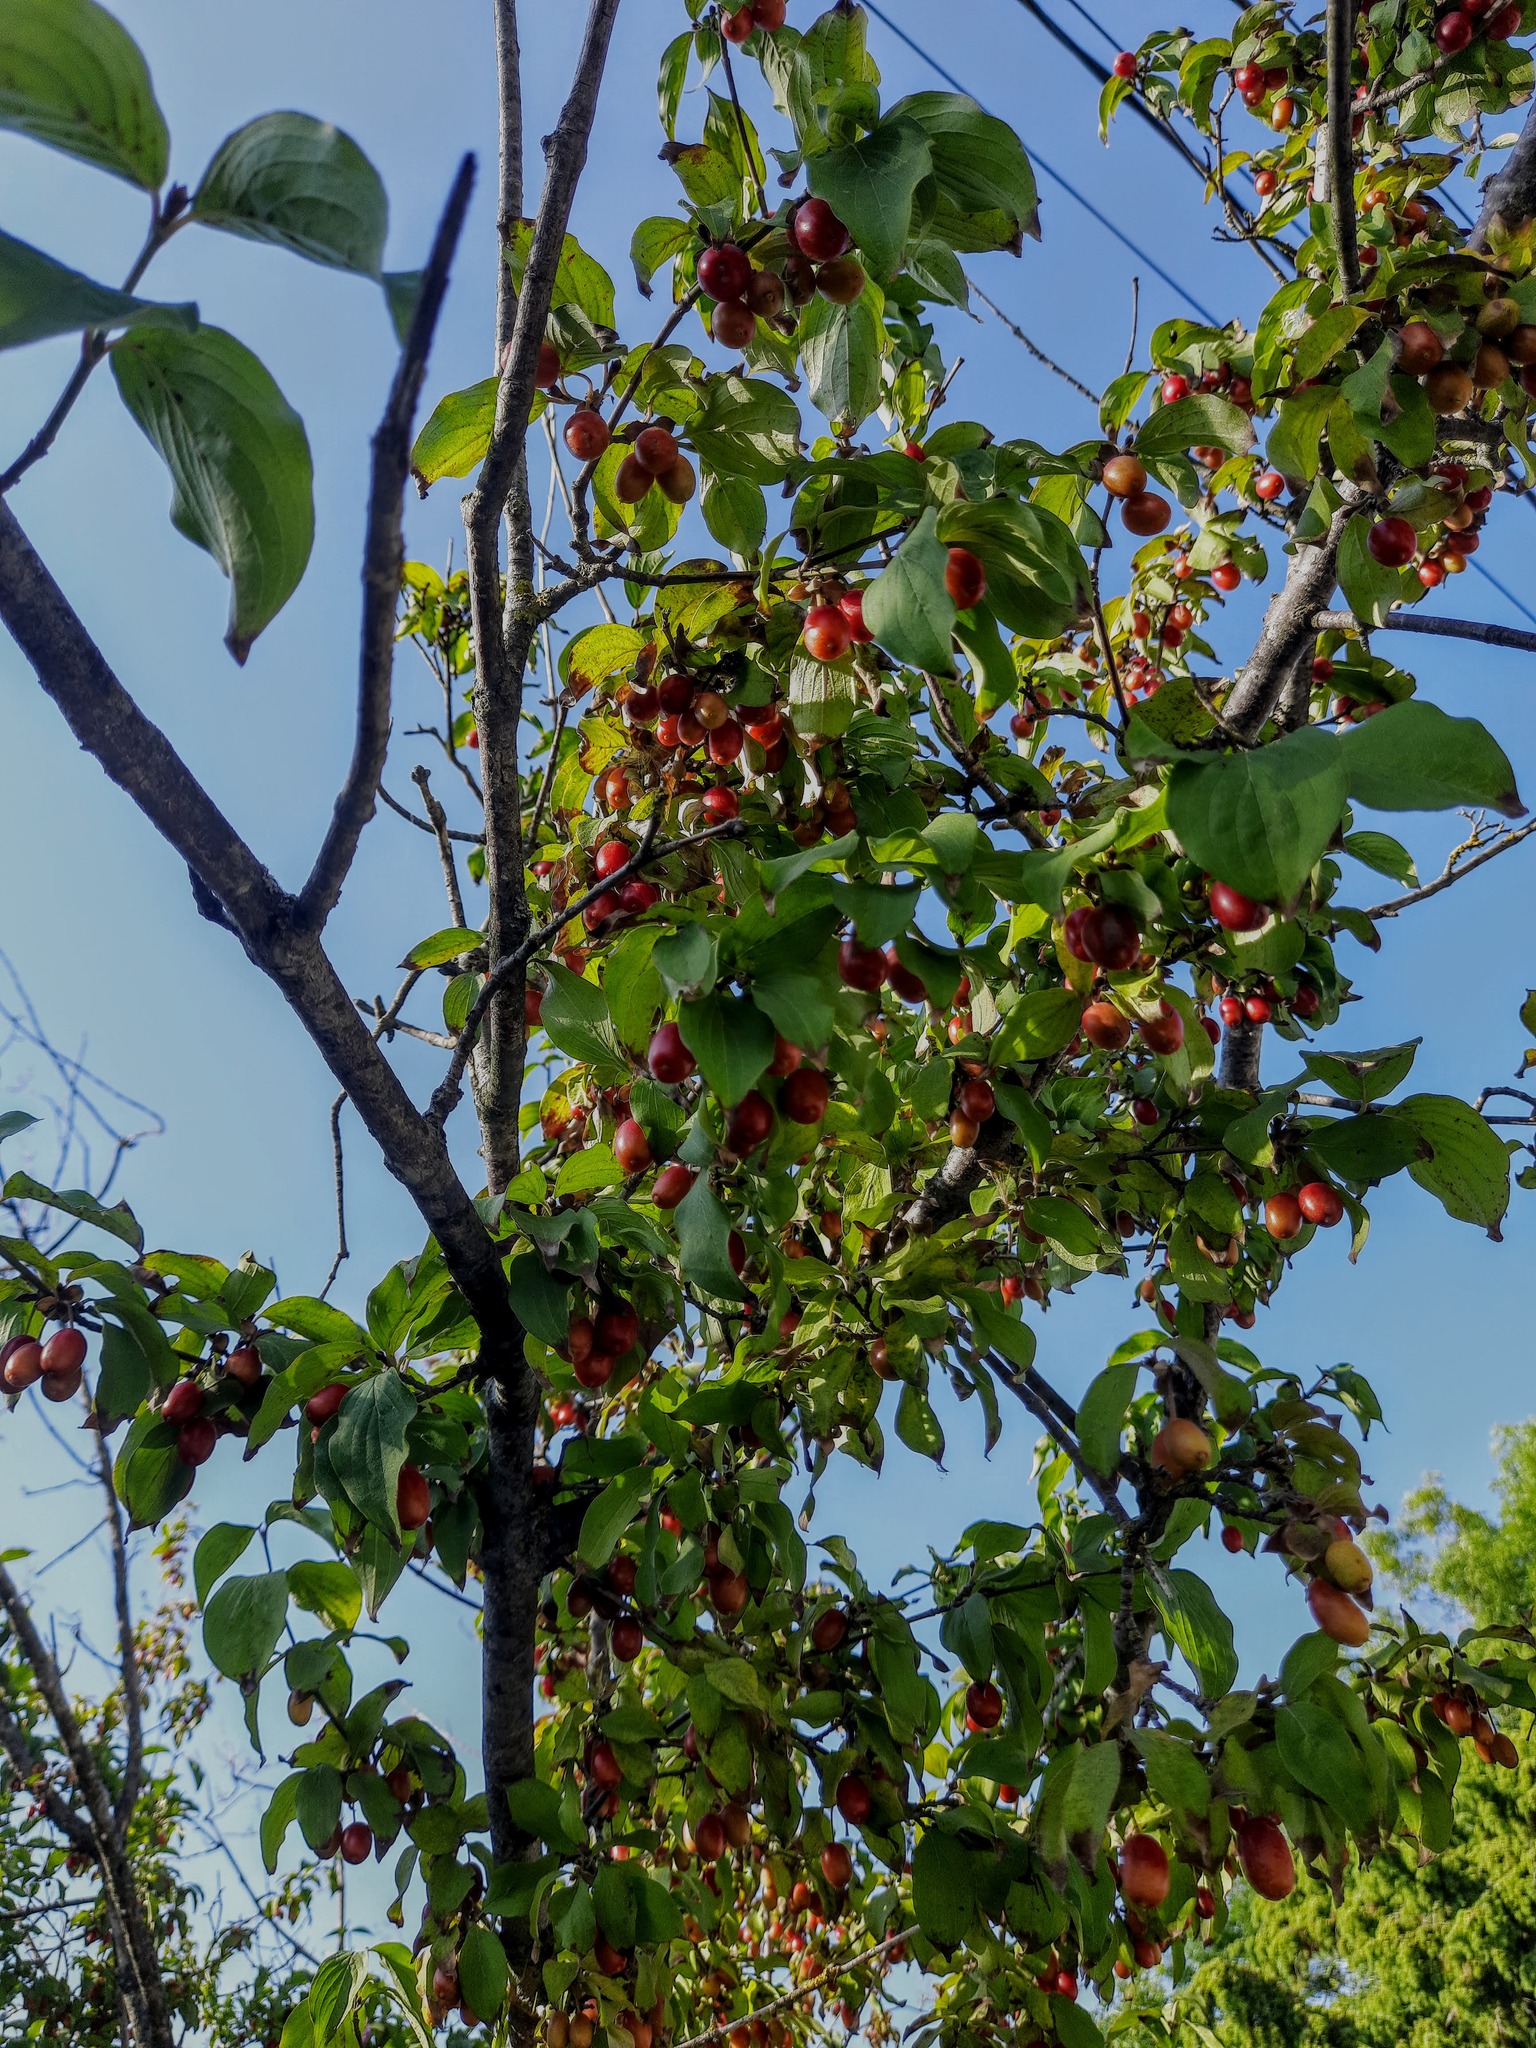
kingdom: Plantae
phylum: Tracheophyta
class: Magnoliopsida
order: Cornales
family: Cornaceae
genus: Cornus
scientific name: Cornus mas
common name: Cornelian-cherry
